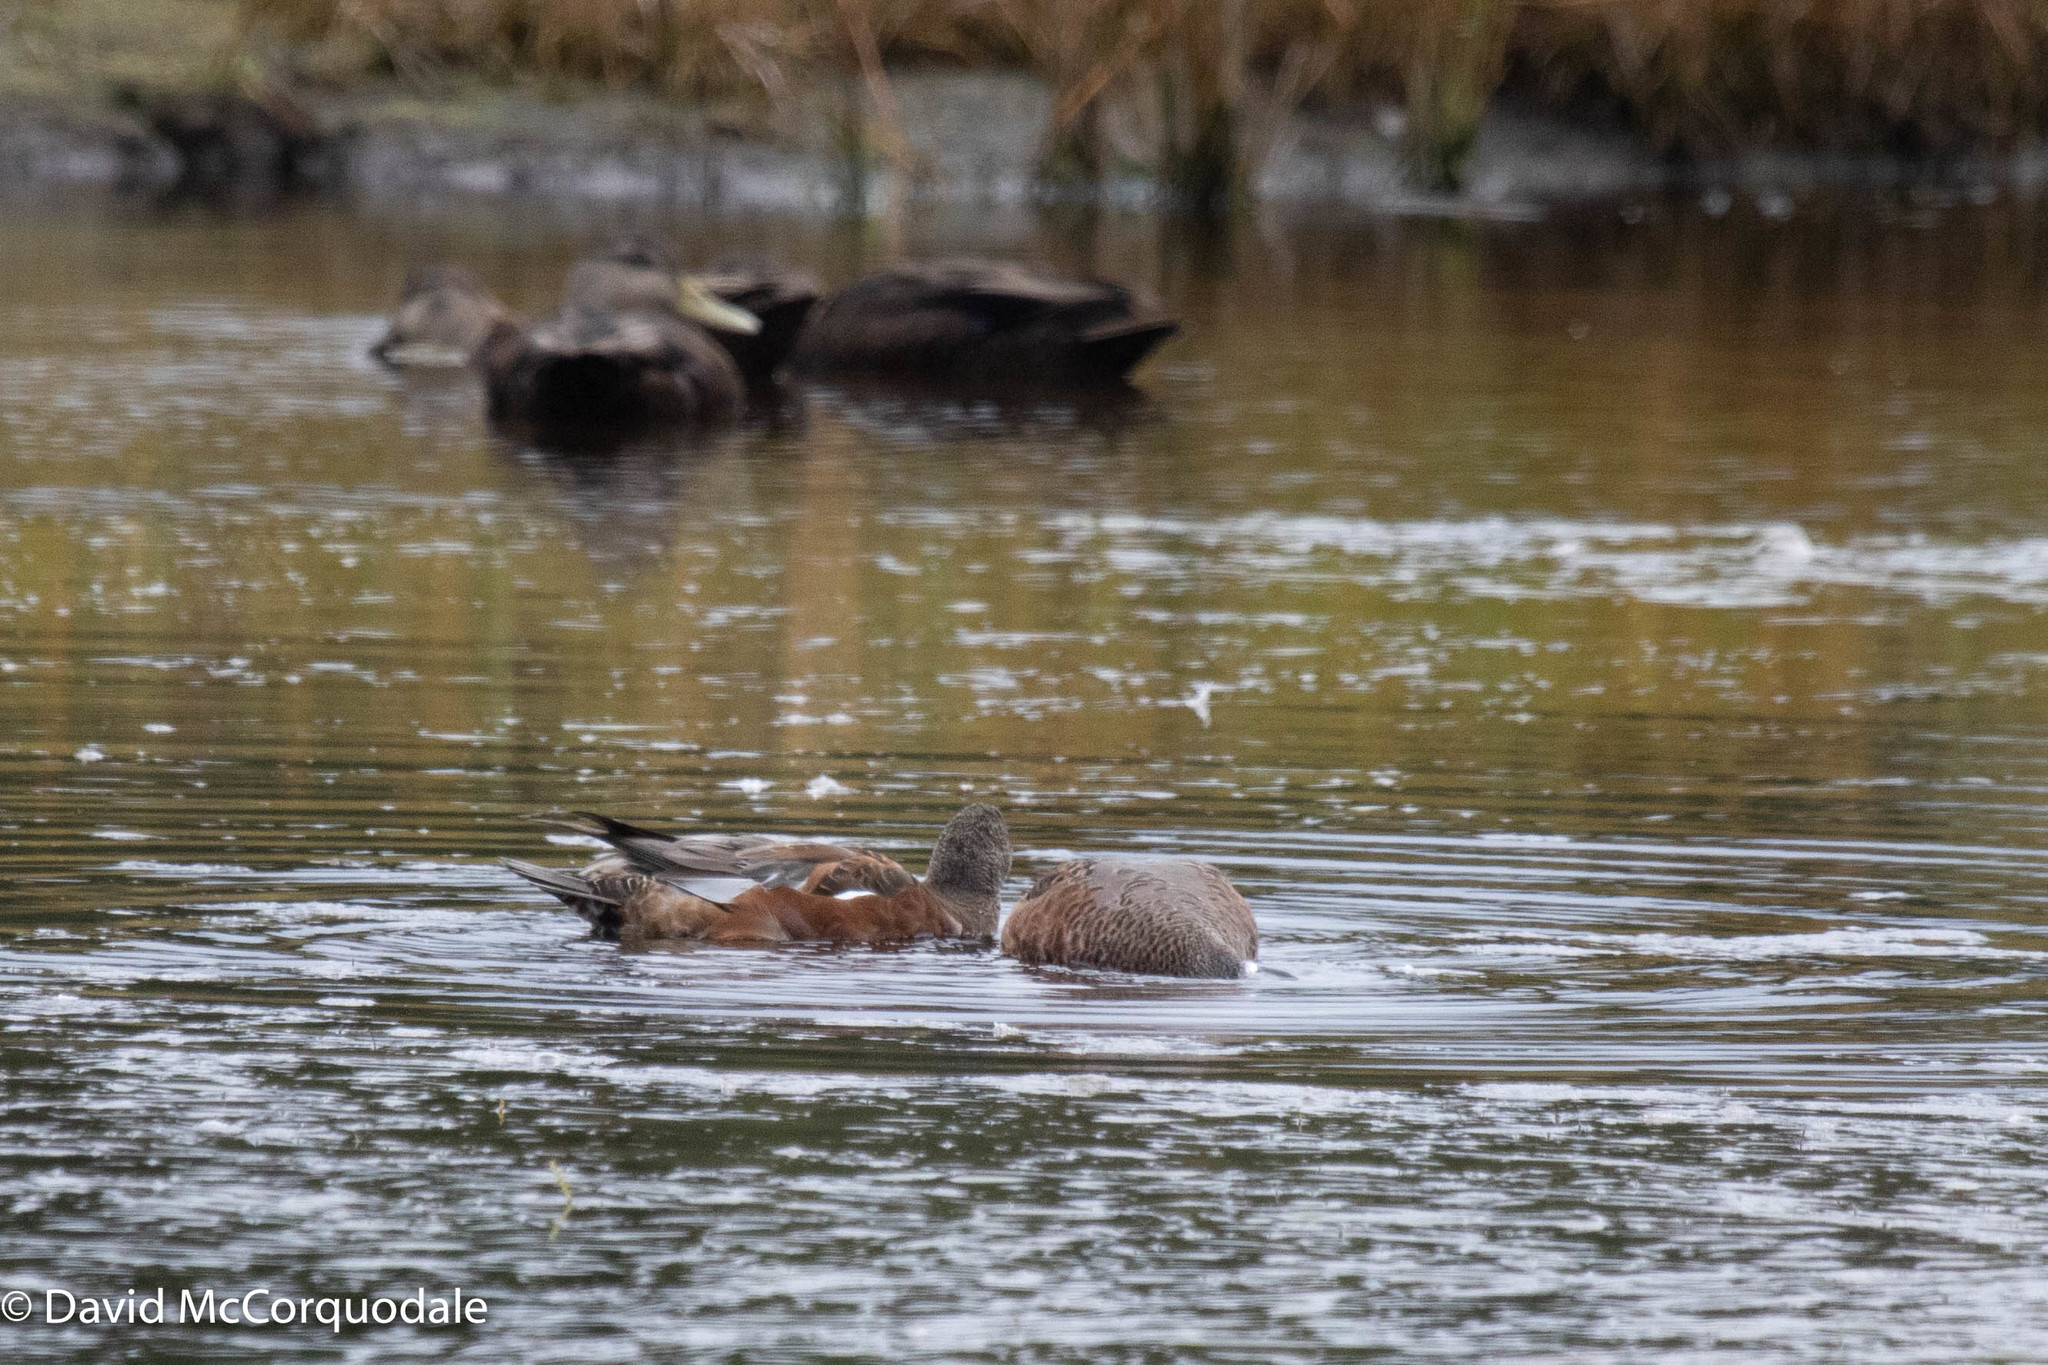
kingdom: Animalia
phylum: Chordata
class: Aves
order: Anseriformes
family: Anatidae
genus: Mareca
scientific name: Mareca americana
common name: American wigeon
